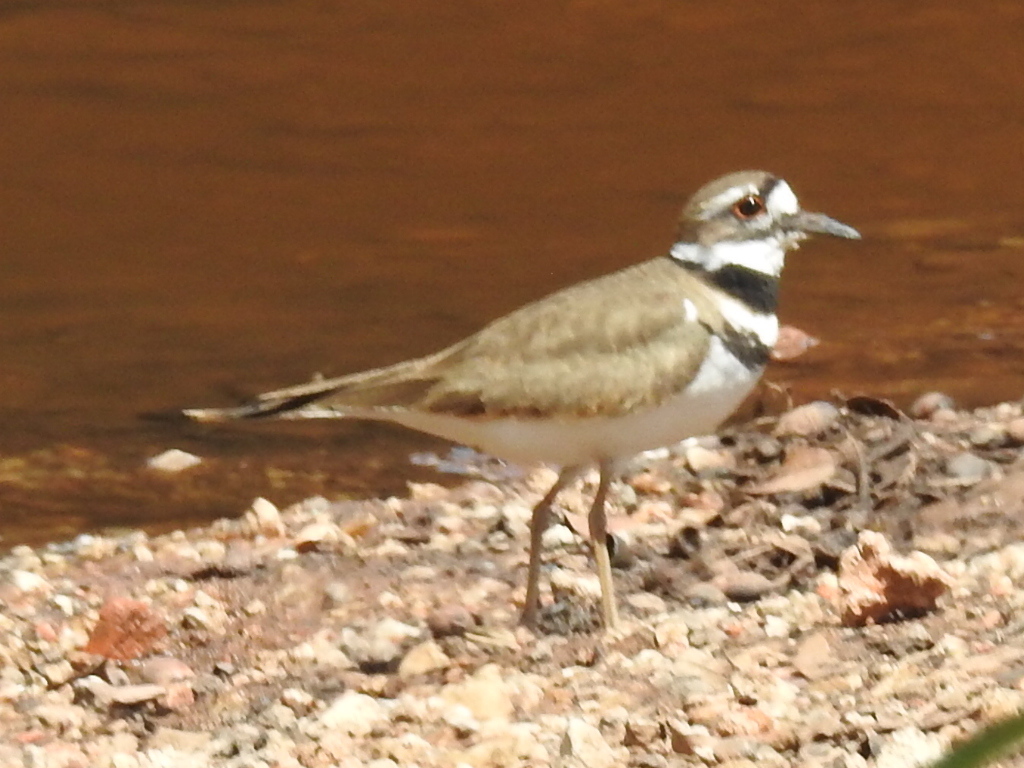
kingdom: Animalia
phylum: Chordata
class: Aves
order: Charadriiformes
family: Charadriidae
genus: Charadrius
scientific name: Charadrius vociferus
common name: Killdeer
